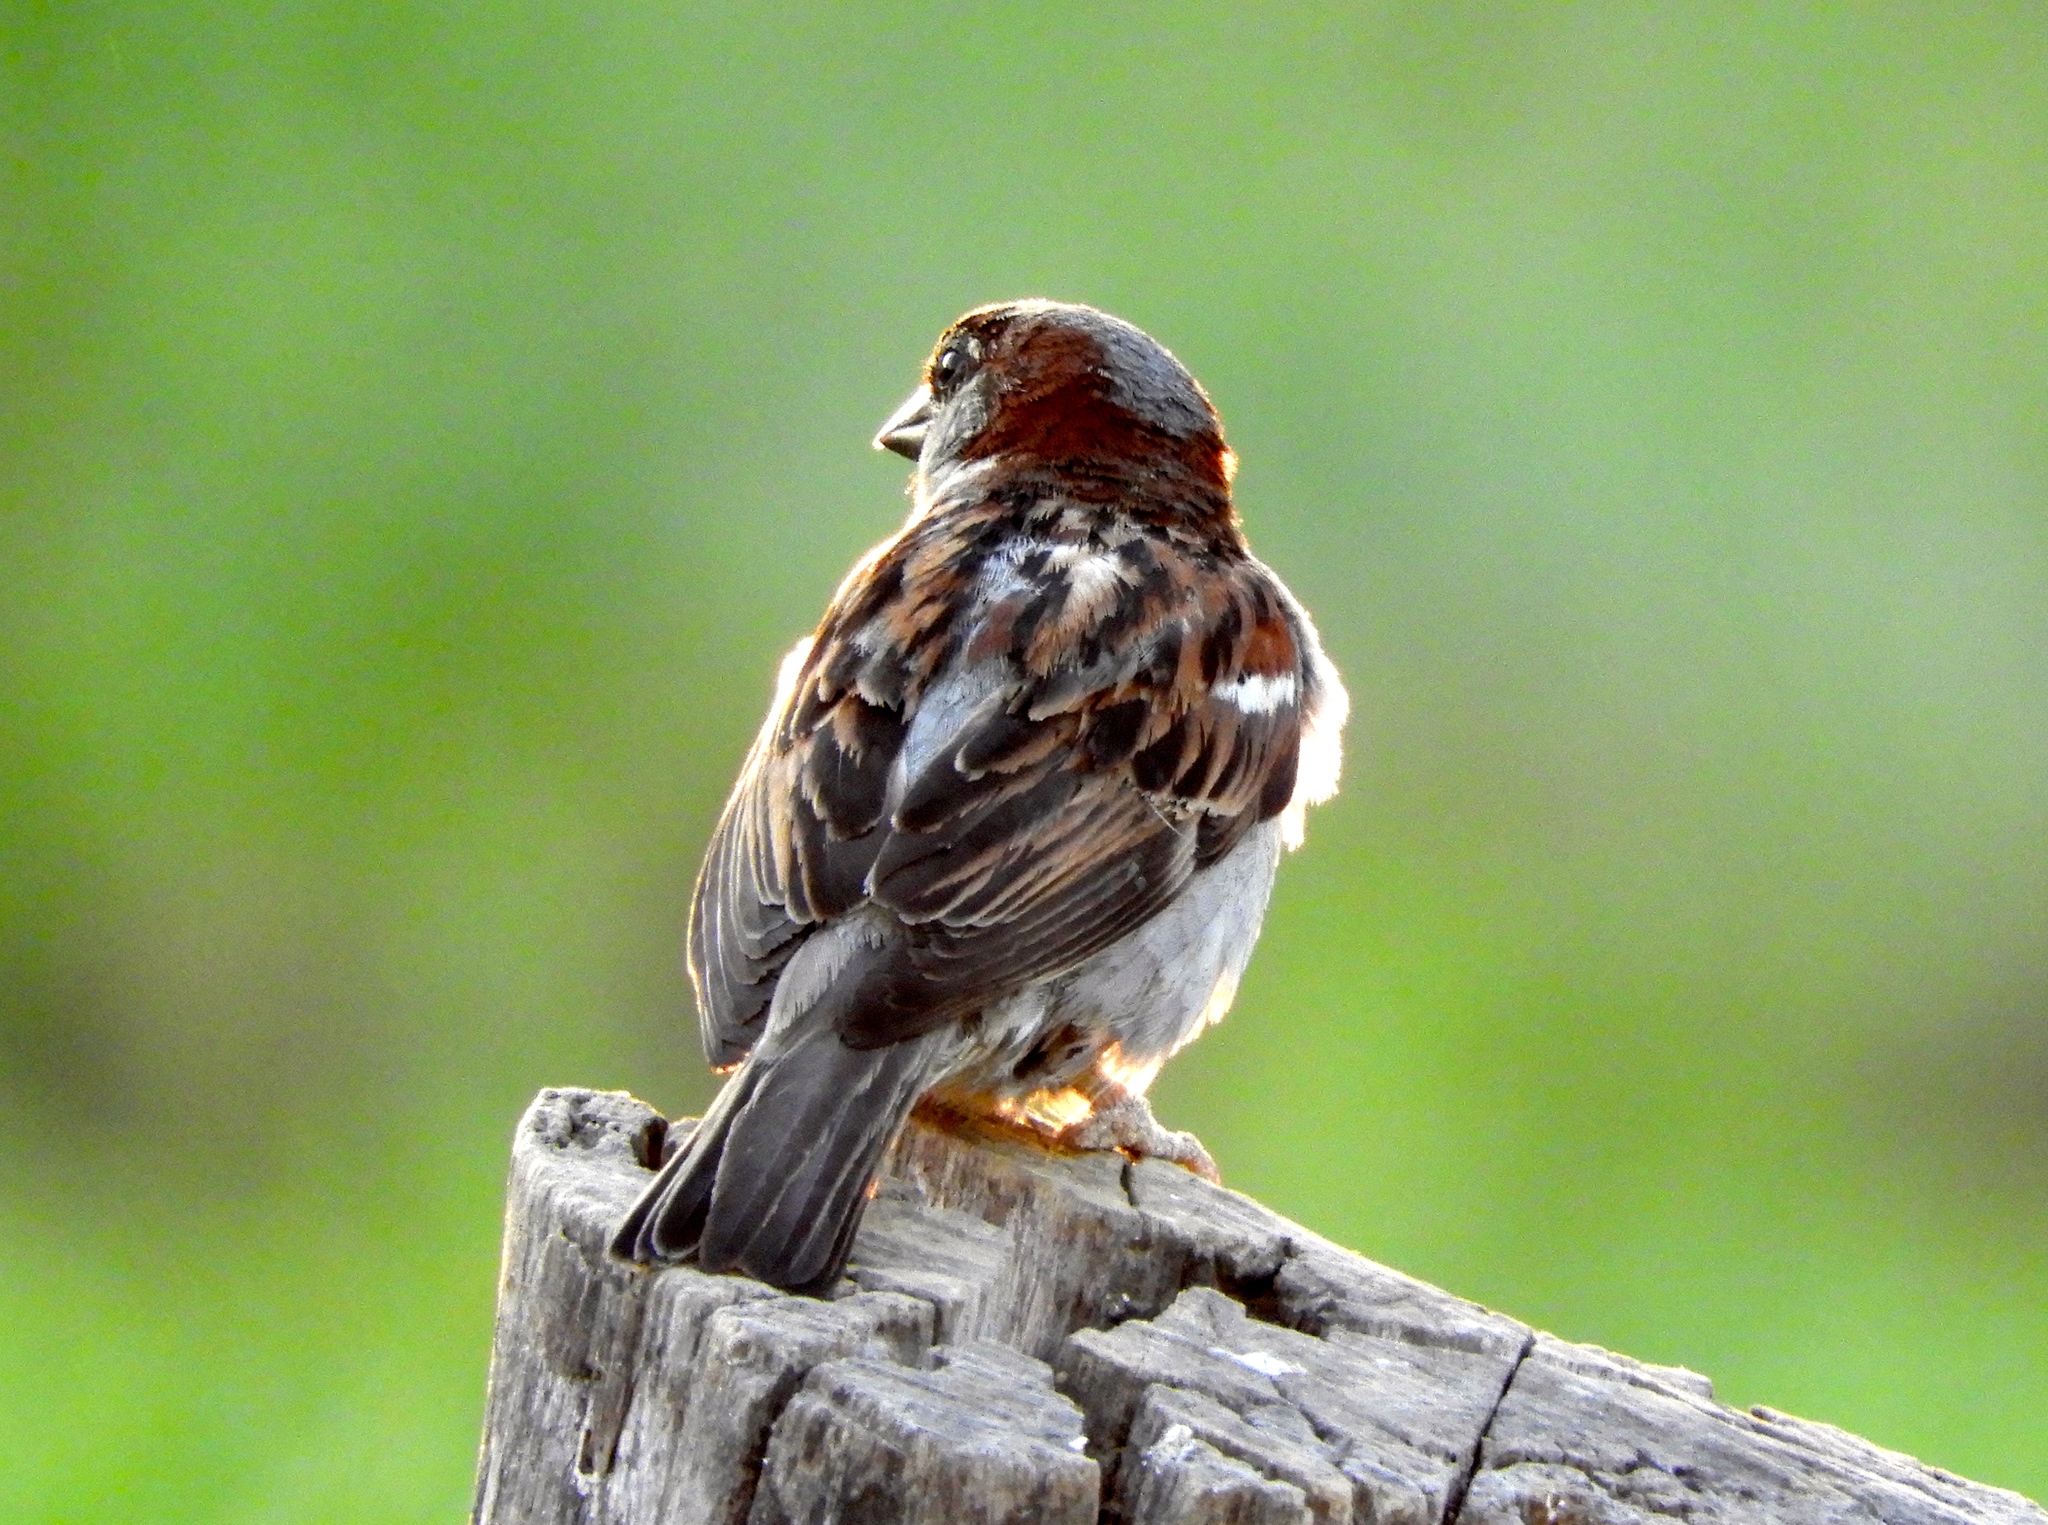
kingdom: Animalia
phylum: Chordata
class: Aves
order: Passeriformes
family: Passeridae
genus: Passer
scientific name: Passer domesticus
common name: House sparrow
